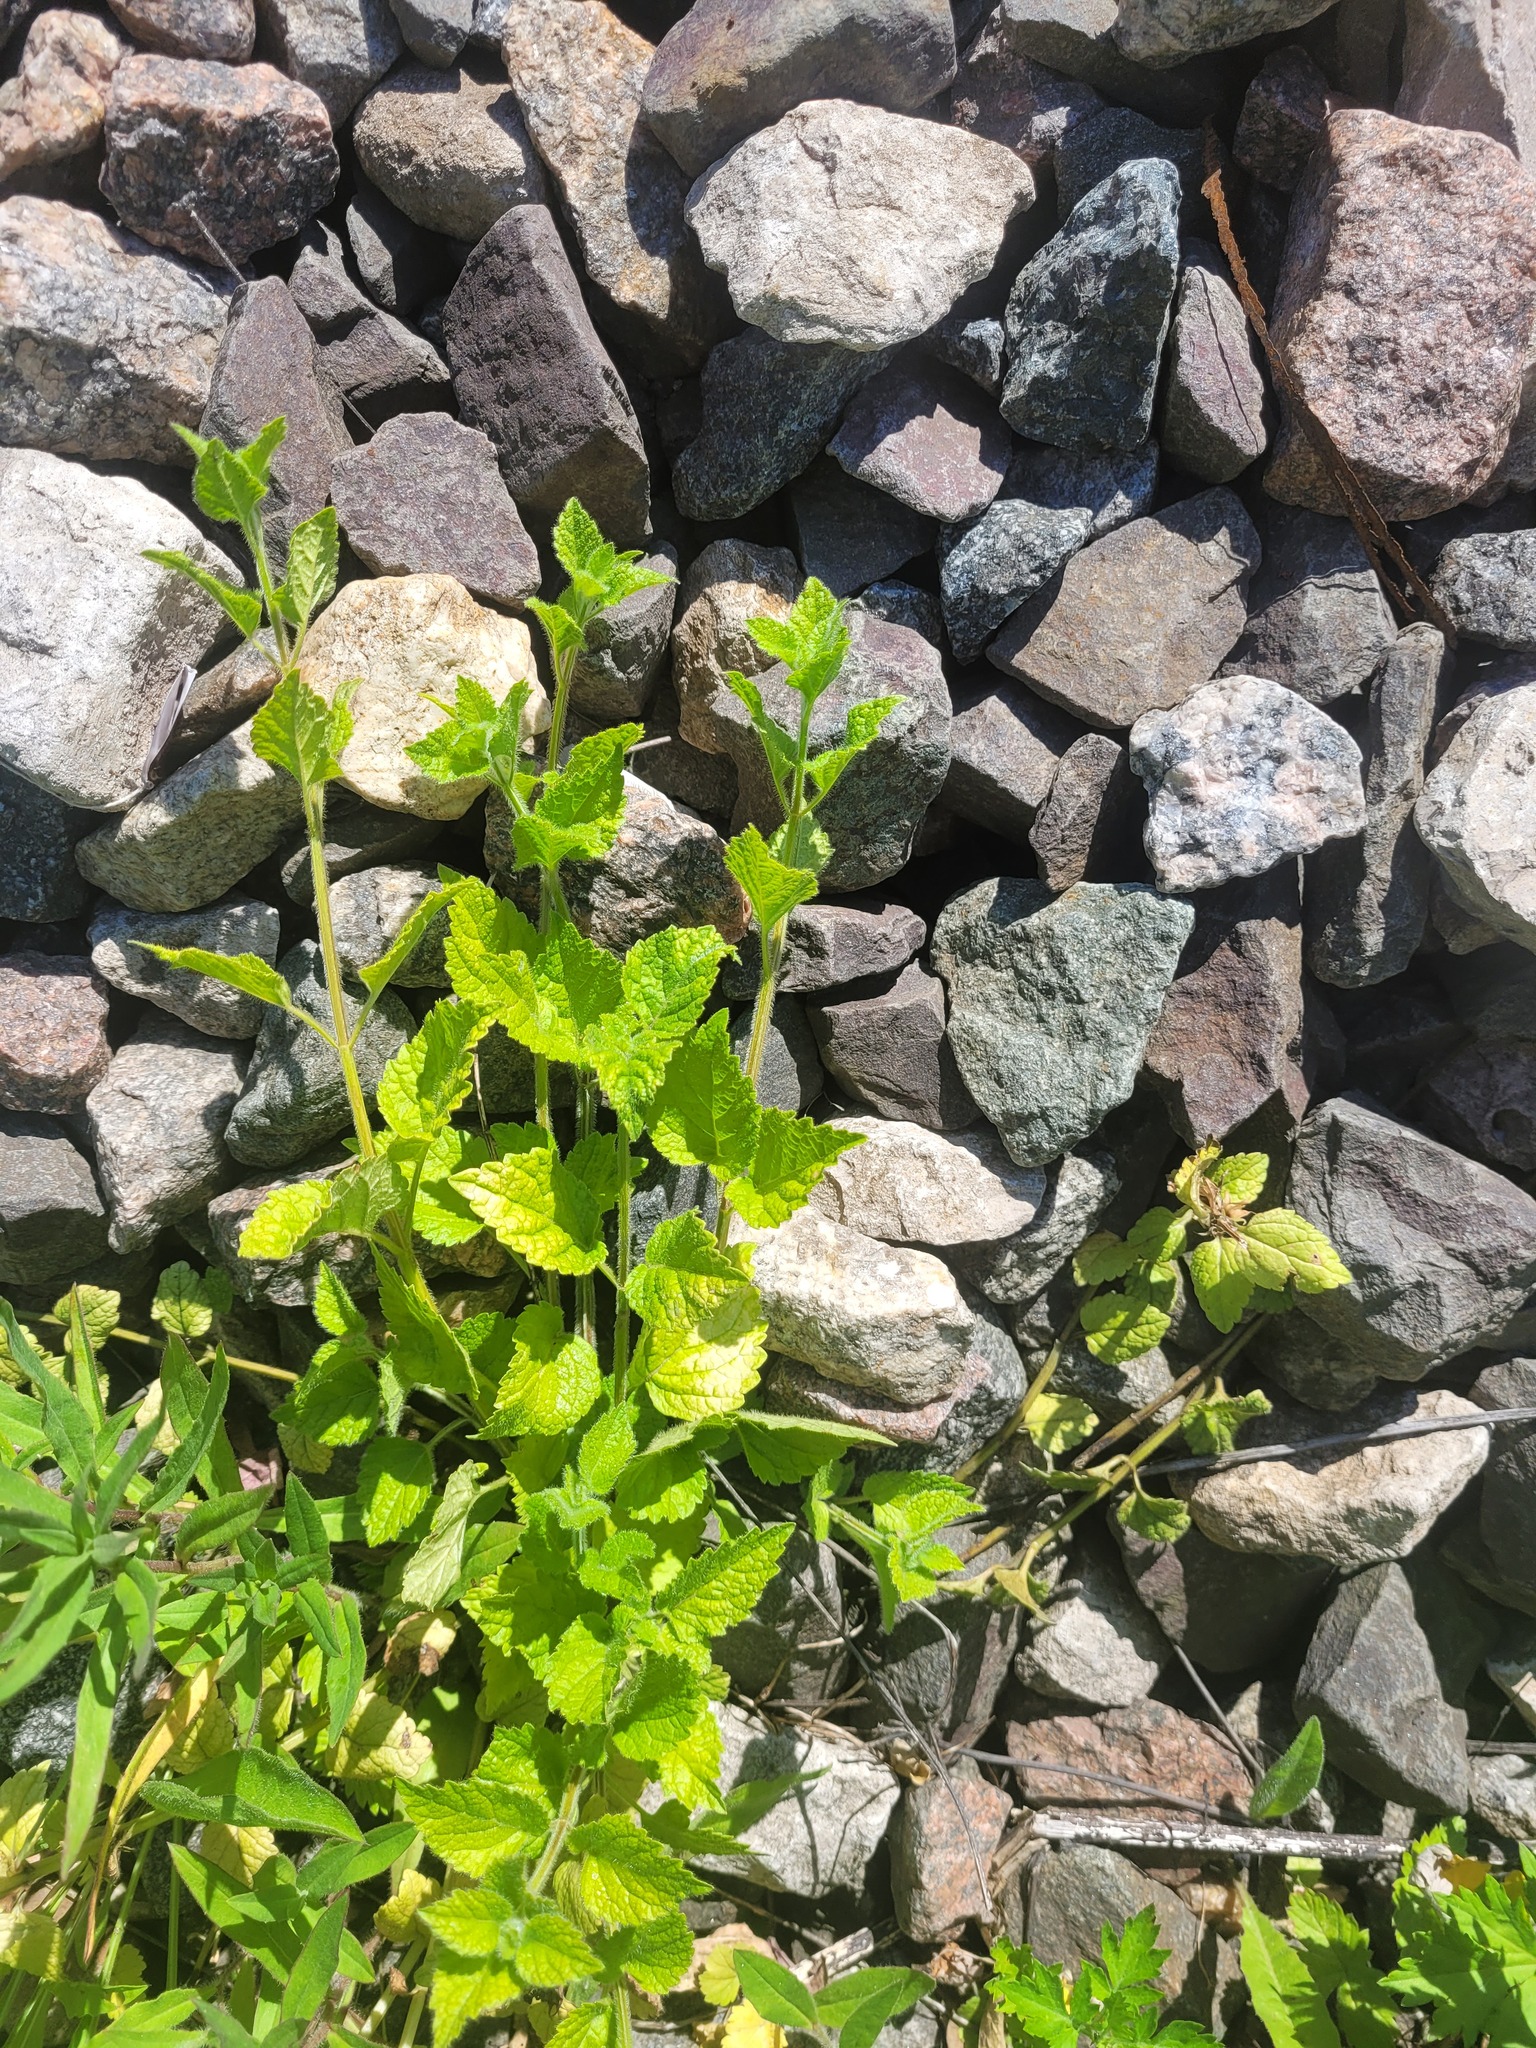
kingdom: Plantae
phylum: Tracheophyta
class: Magnoliopsida
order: Lamiales
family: Lamiaceae
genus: Lamium
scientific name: Lamium galeobdolon
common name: Yellow archangel
